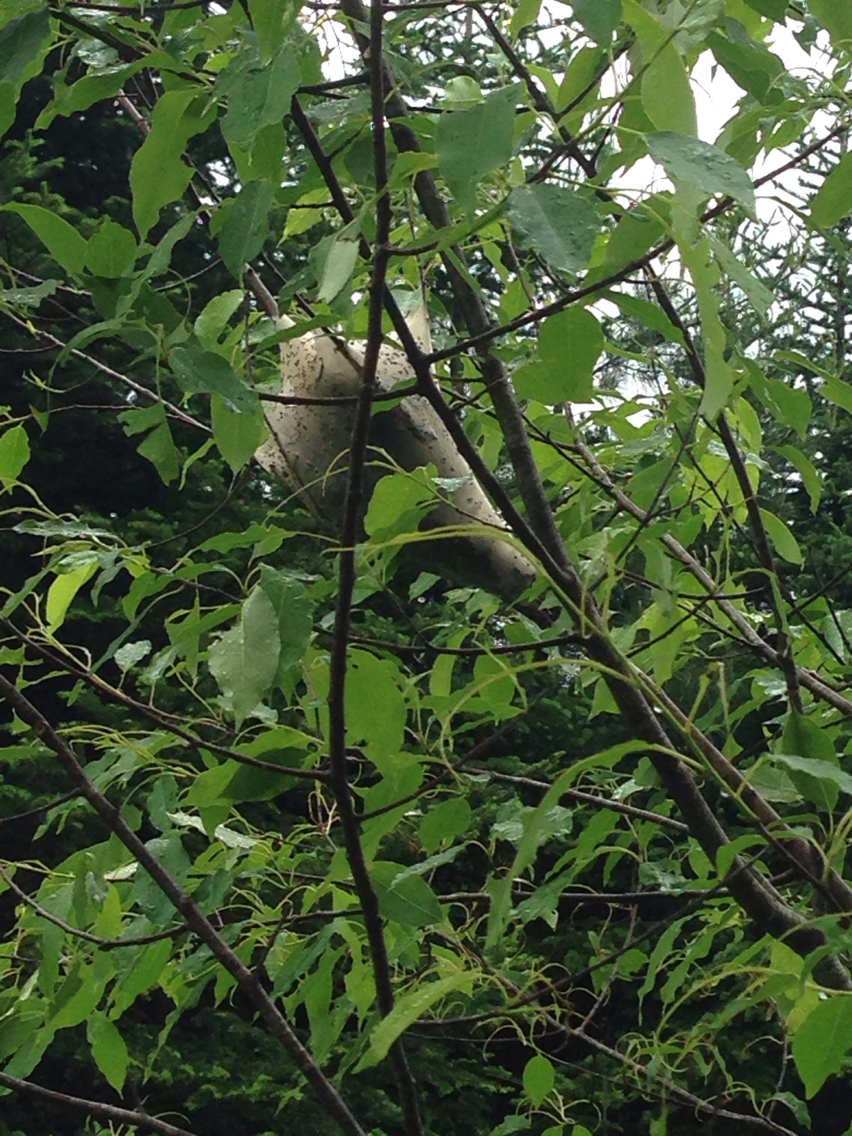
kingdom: Animalia
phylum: Arthropoda
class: Insecta
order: Lepidoptera
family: Lasiocampidae
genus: Malacosoma
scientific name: Malacosoma americana
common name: Eastern tent caterpillar moth
